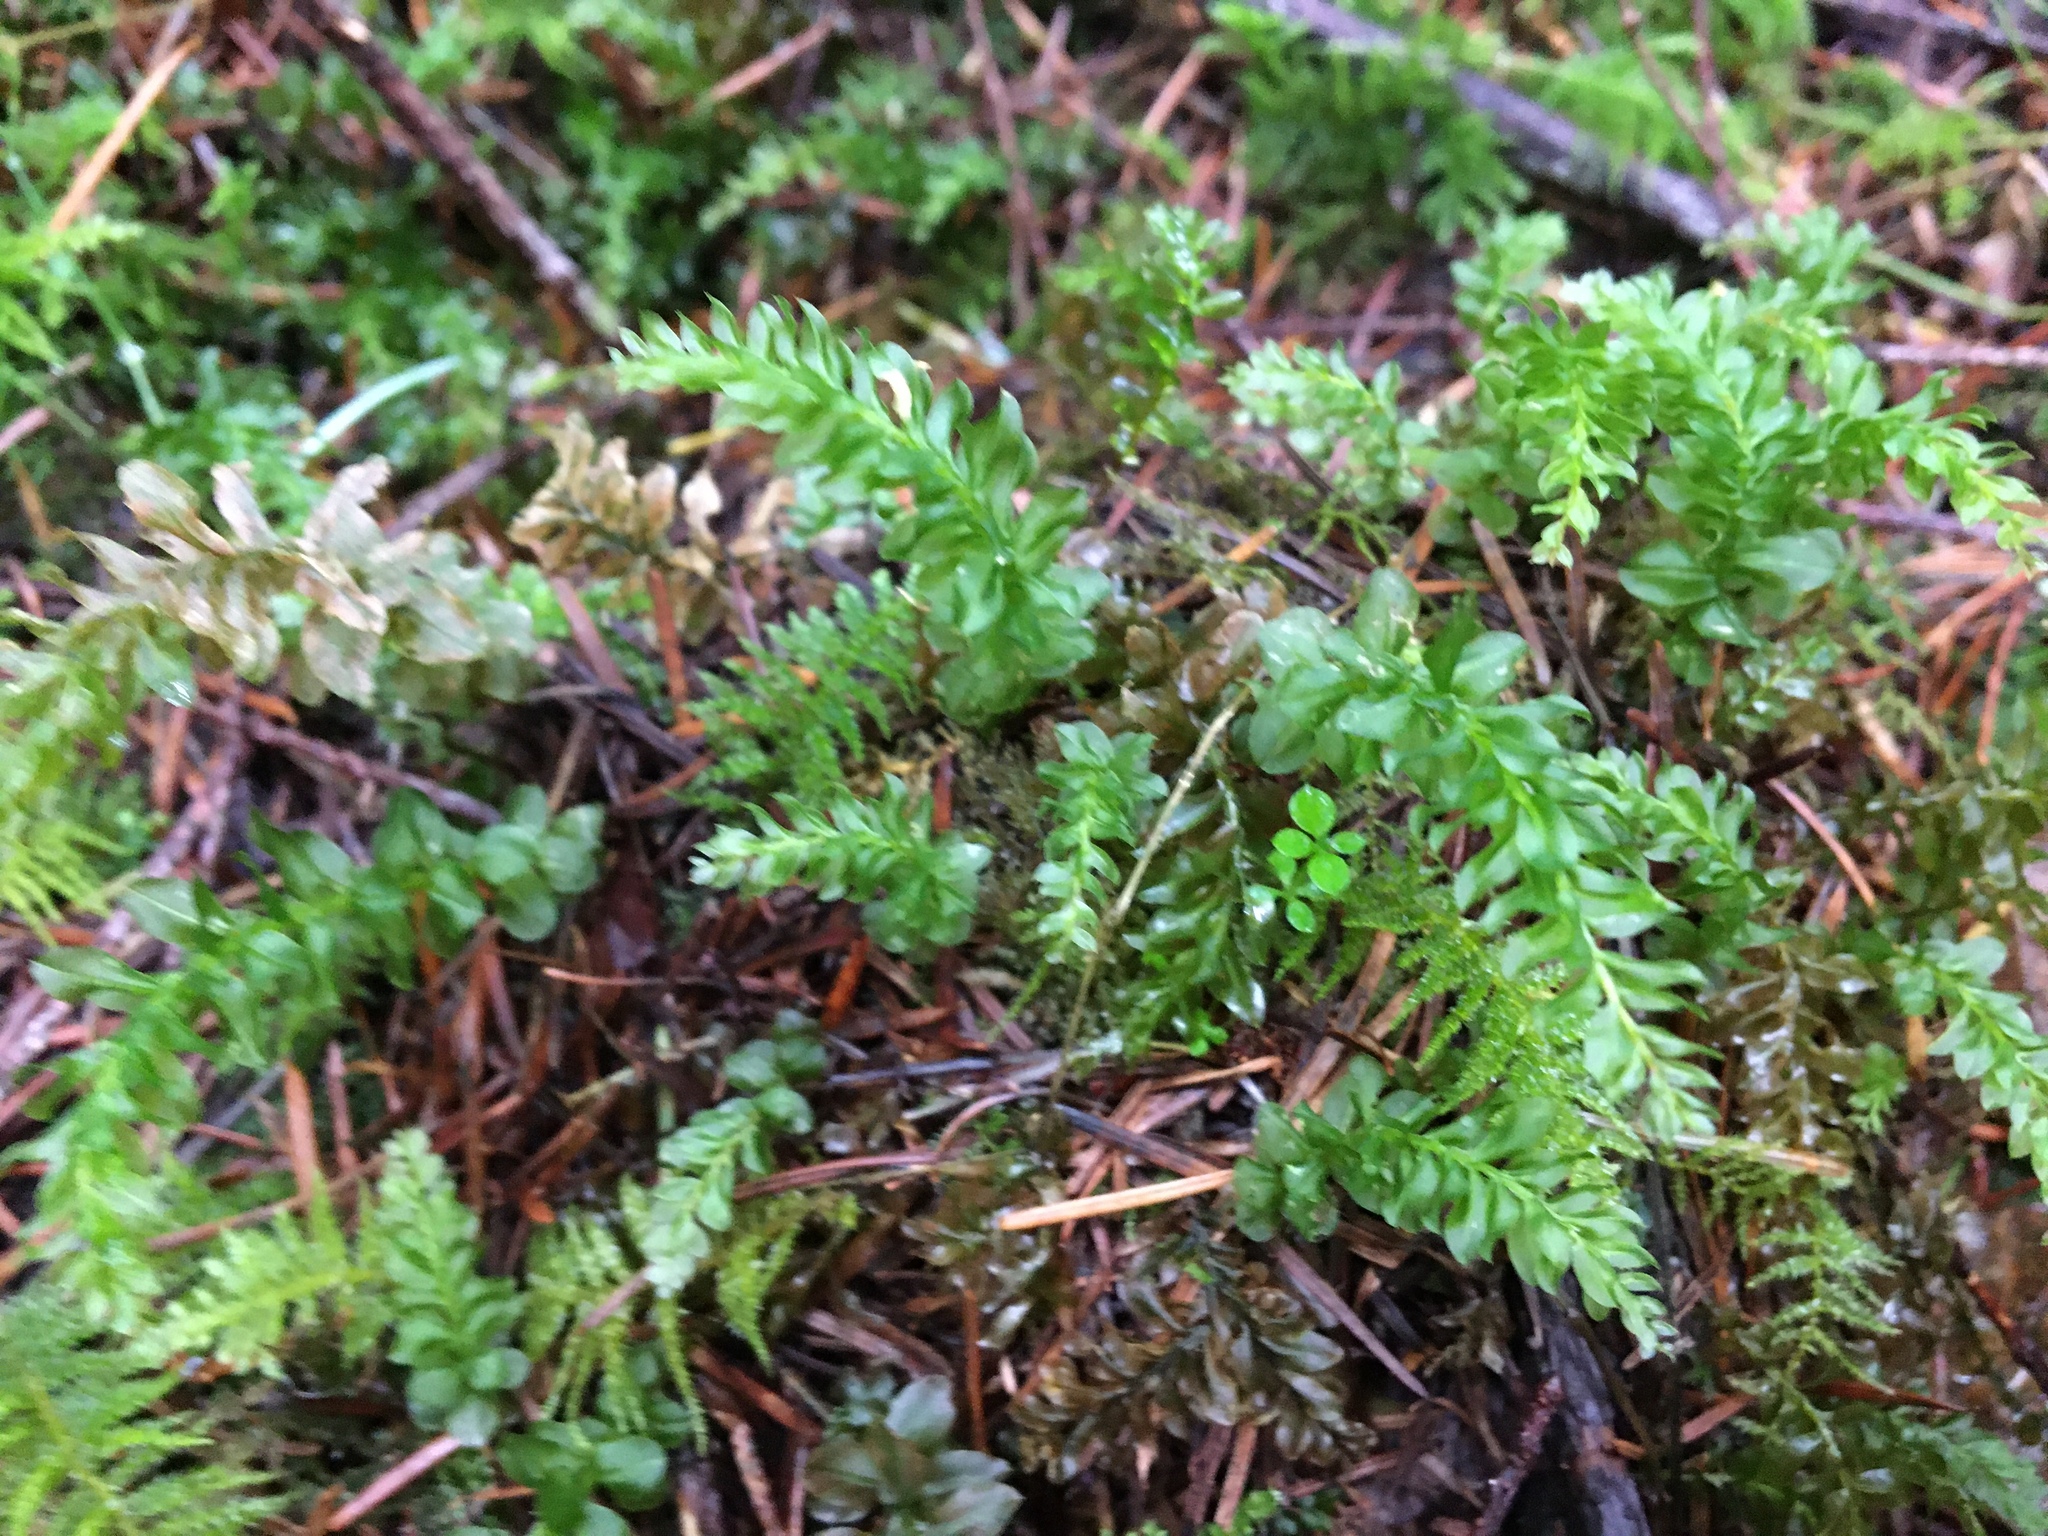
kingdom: Plantae
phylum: Bryophyta
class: Bryopsida
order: Bryales
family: Mniaceae
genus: Plagiomnium
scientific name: Plagiomnium insigne
